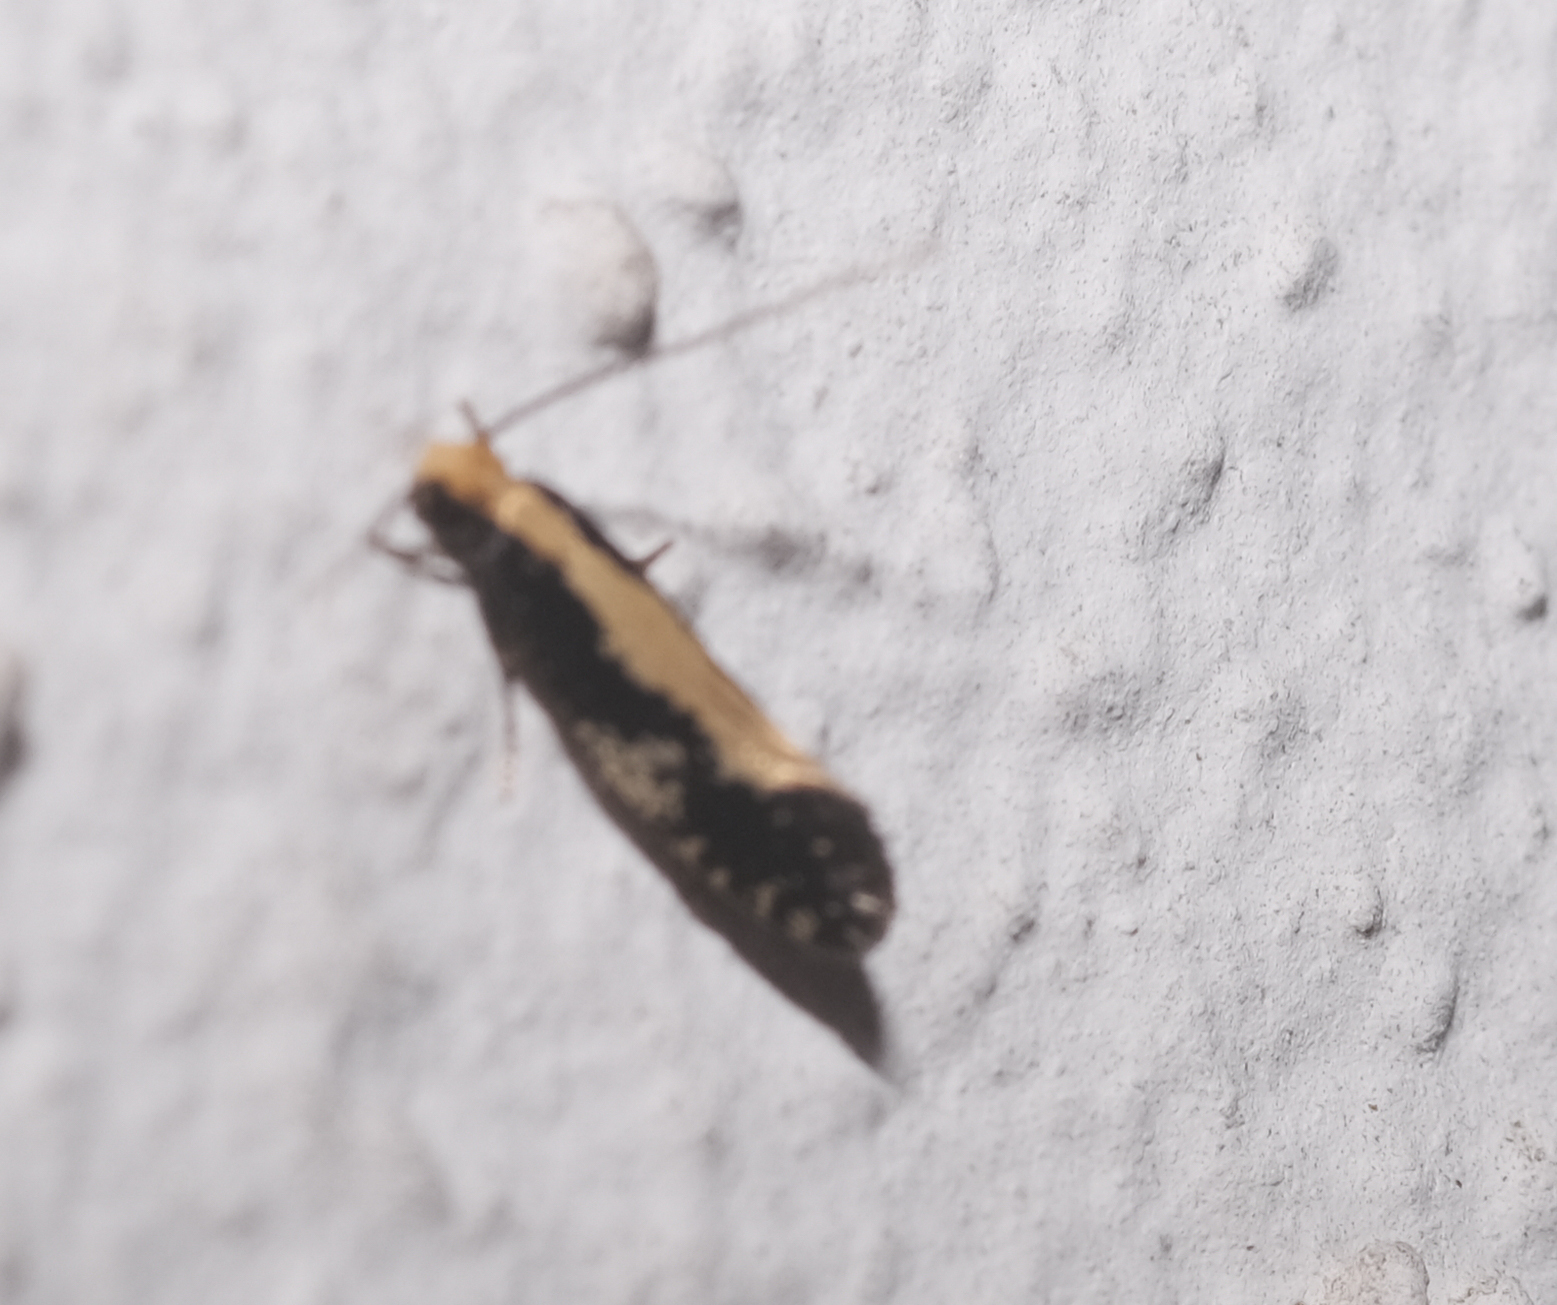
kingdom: Animalia
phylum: Arthropoda
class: Insecta
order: Lepidoptera
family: Tineidae
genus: Monopis
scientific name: Monopis obviella
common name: Tineid moth
